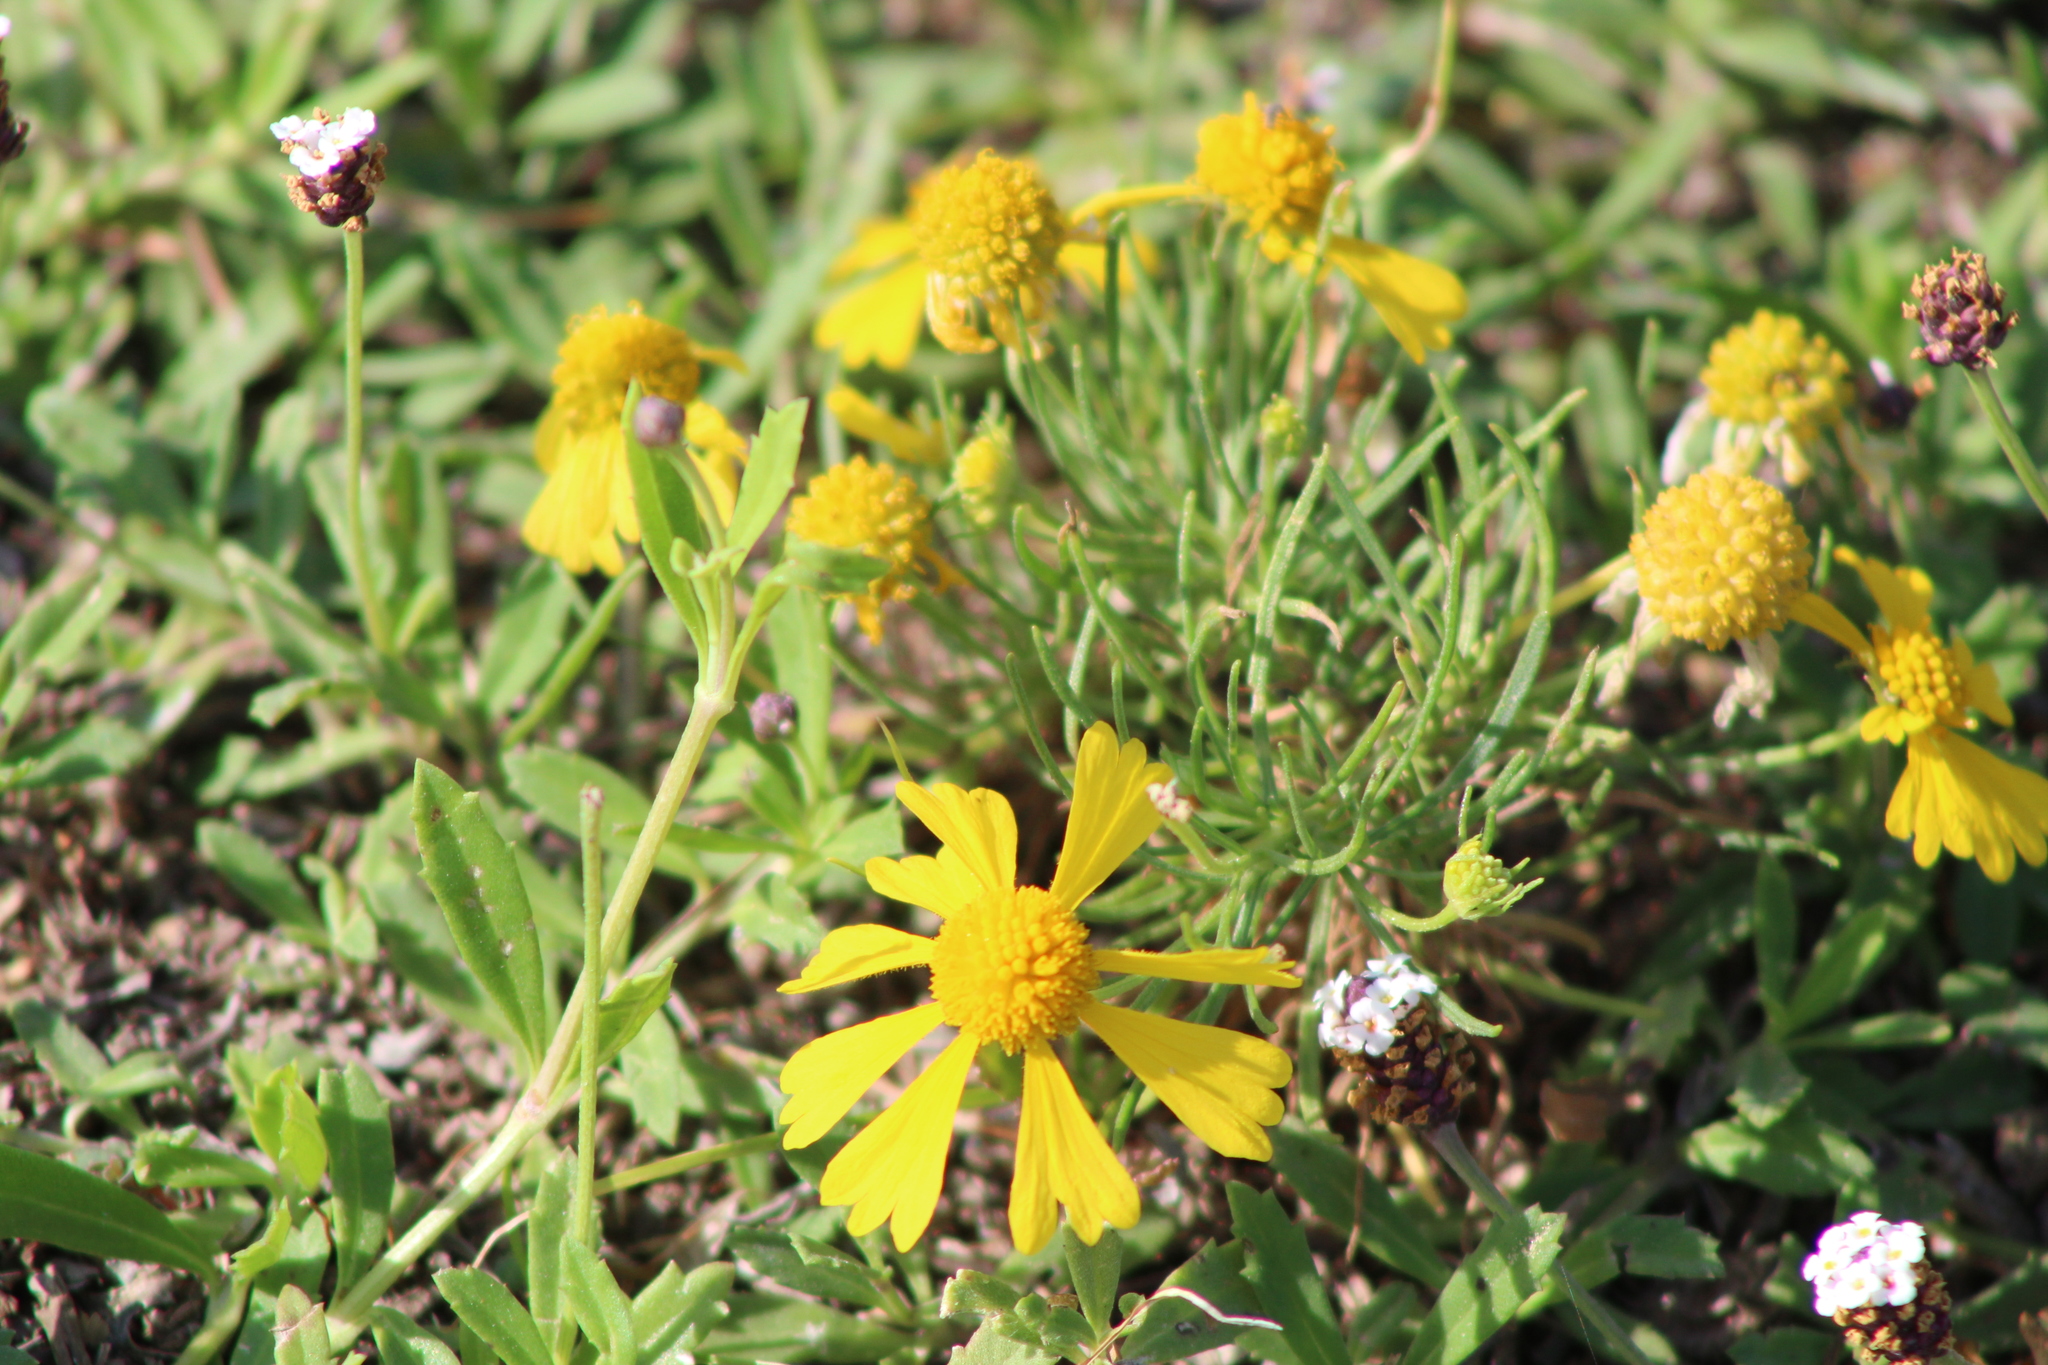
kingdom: Plantae
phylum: Tracheophyta
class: Magnoliopsida
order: Asterales
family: Asteraceae
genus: Helenium
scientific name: Helenium amarum
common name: Bitter sneezeweed
